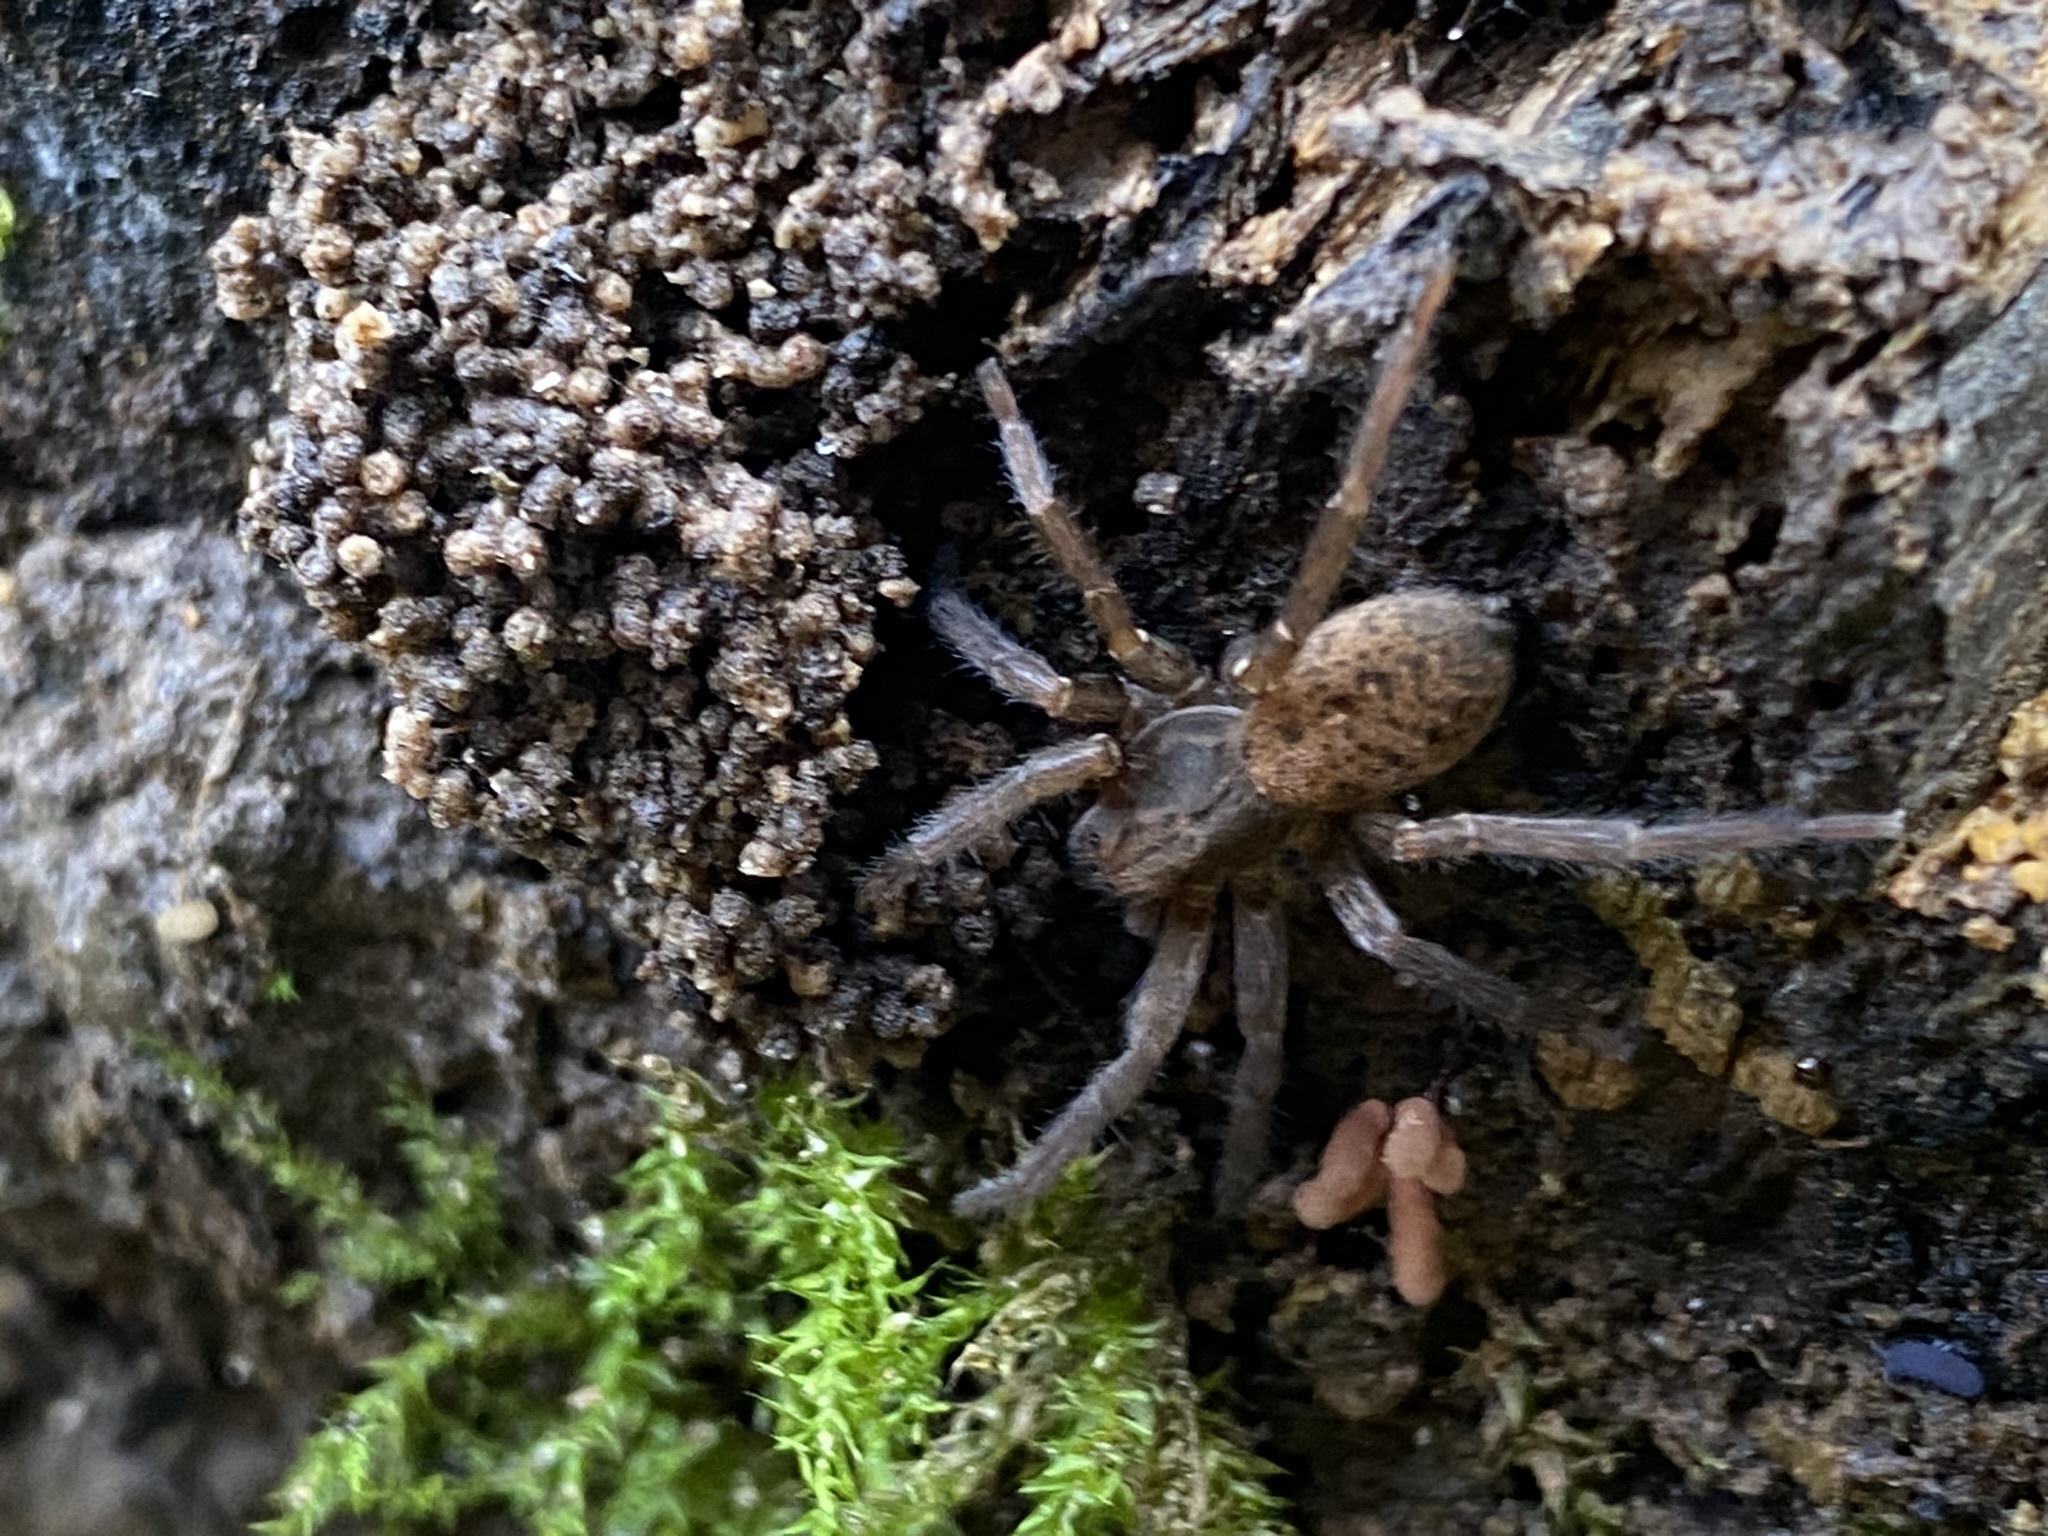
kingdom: Animalia
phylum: Arthropoda
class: Arachnida
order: Araneae
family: Ctenidae
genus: Asthenoctenus
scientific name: Asthenoctenus borellii
